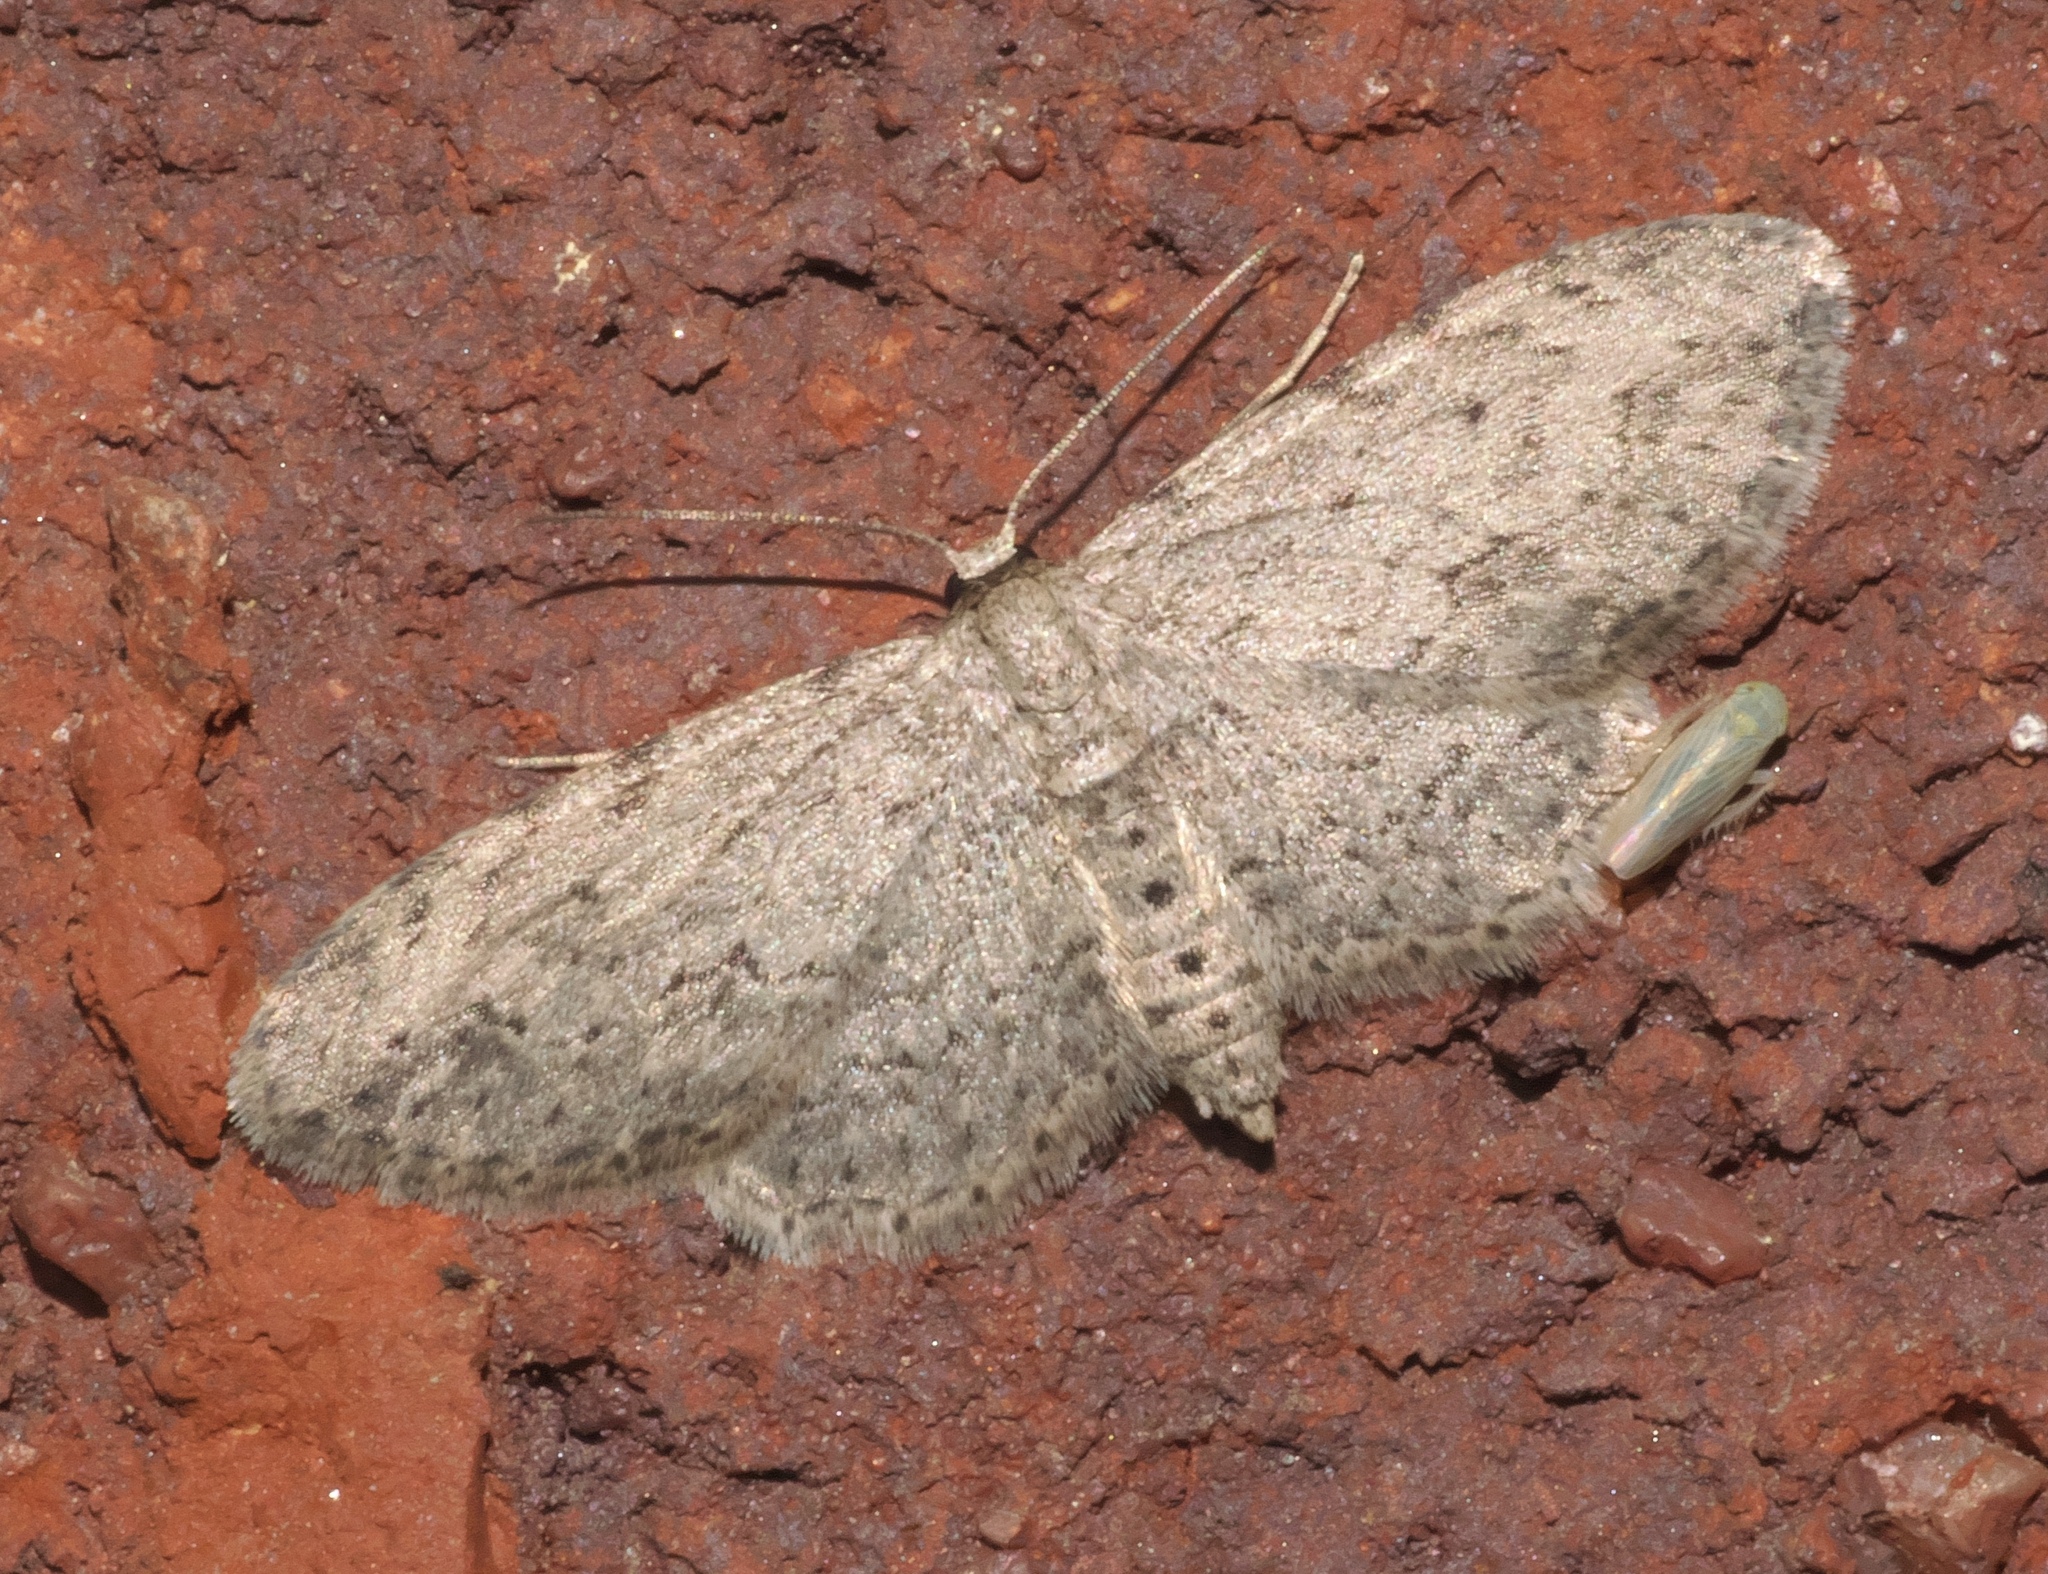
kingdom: Animalia
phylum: Arthropoda
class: Insecta
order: Lepidoptera
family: Geometridae
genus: Pimaphera
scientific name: Pimaphera sparsaria
